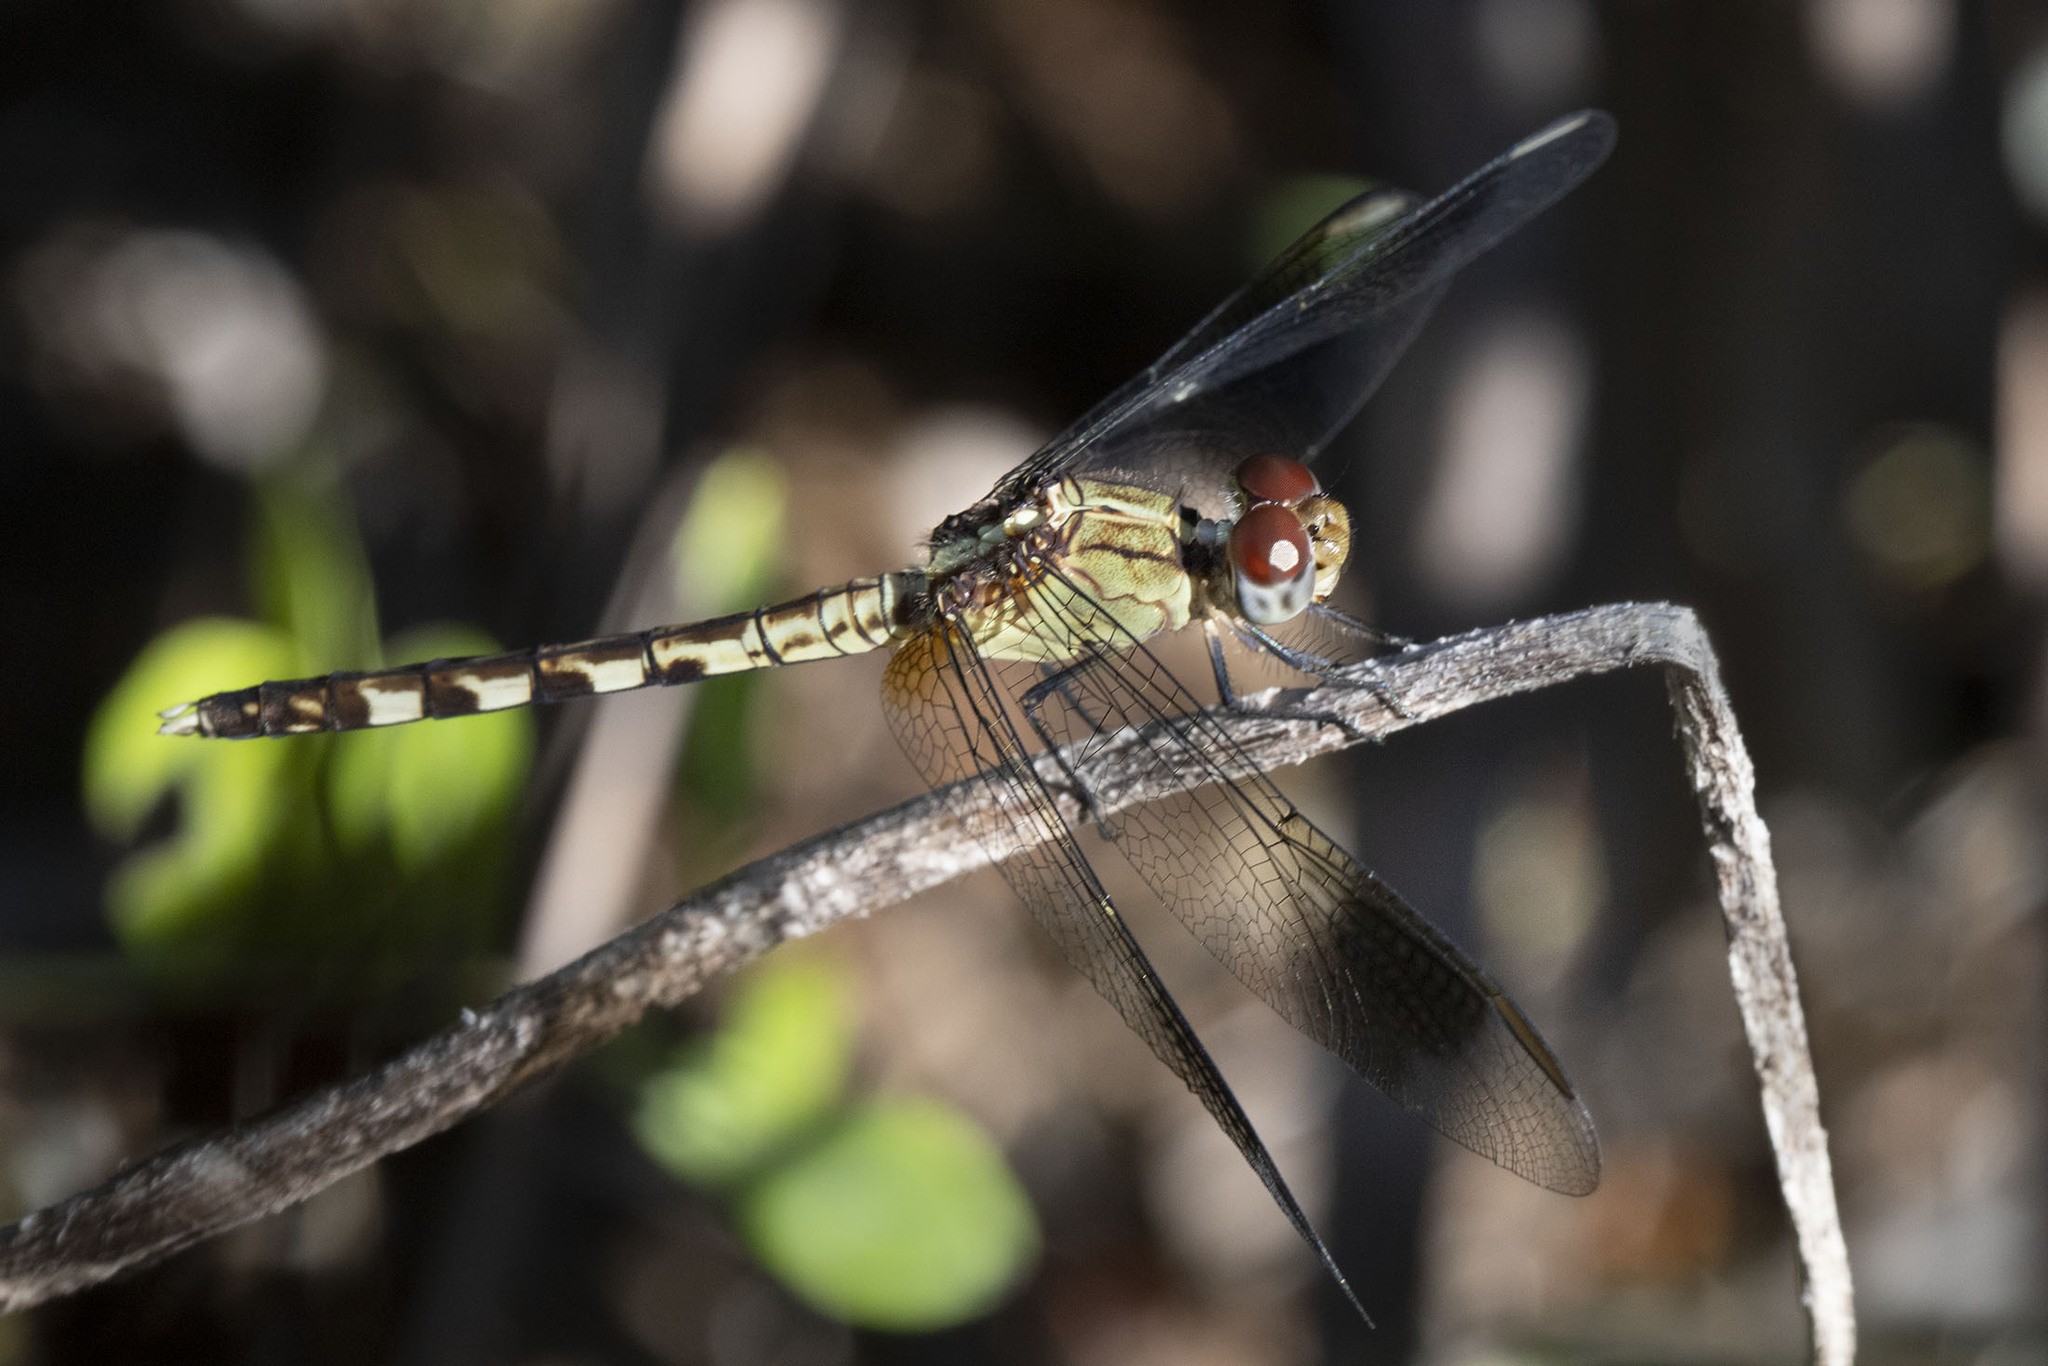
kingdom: Animalia
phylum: Arthropoda
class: Insecta
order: Odonata
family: Libellulidae
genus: Erythrodiplax
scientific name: Erythrodiplax umbrata
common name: Band-winged dragonlet
